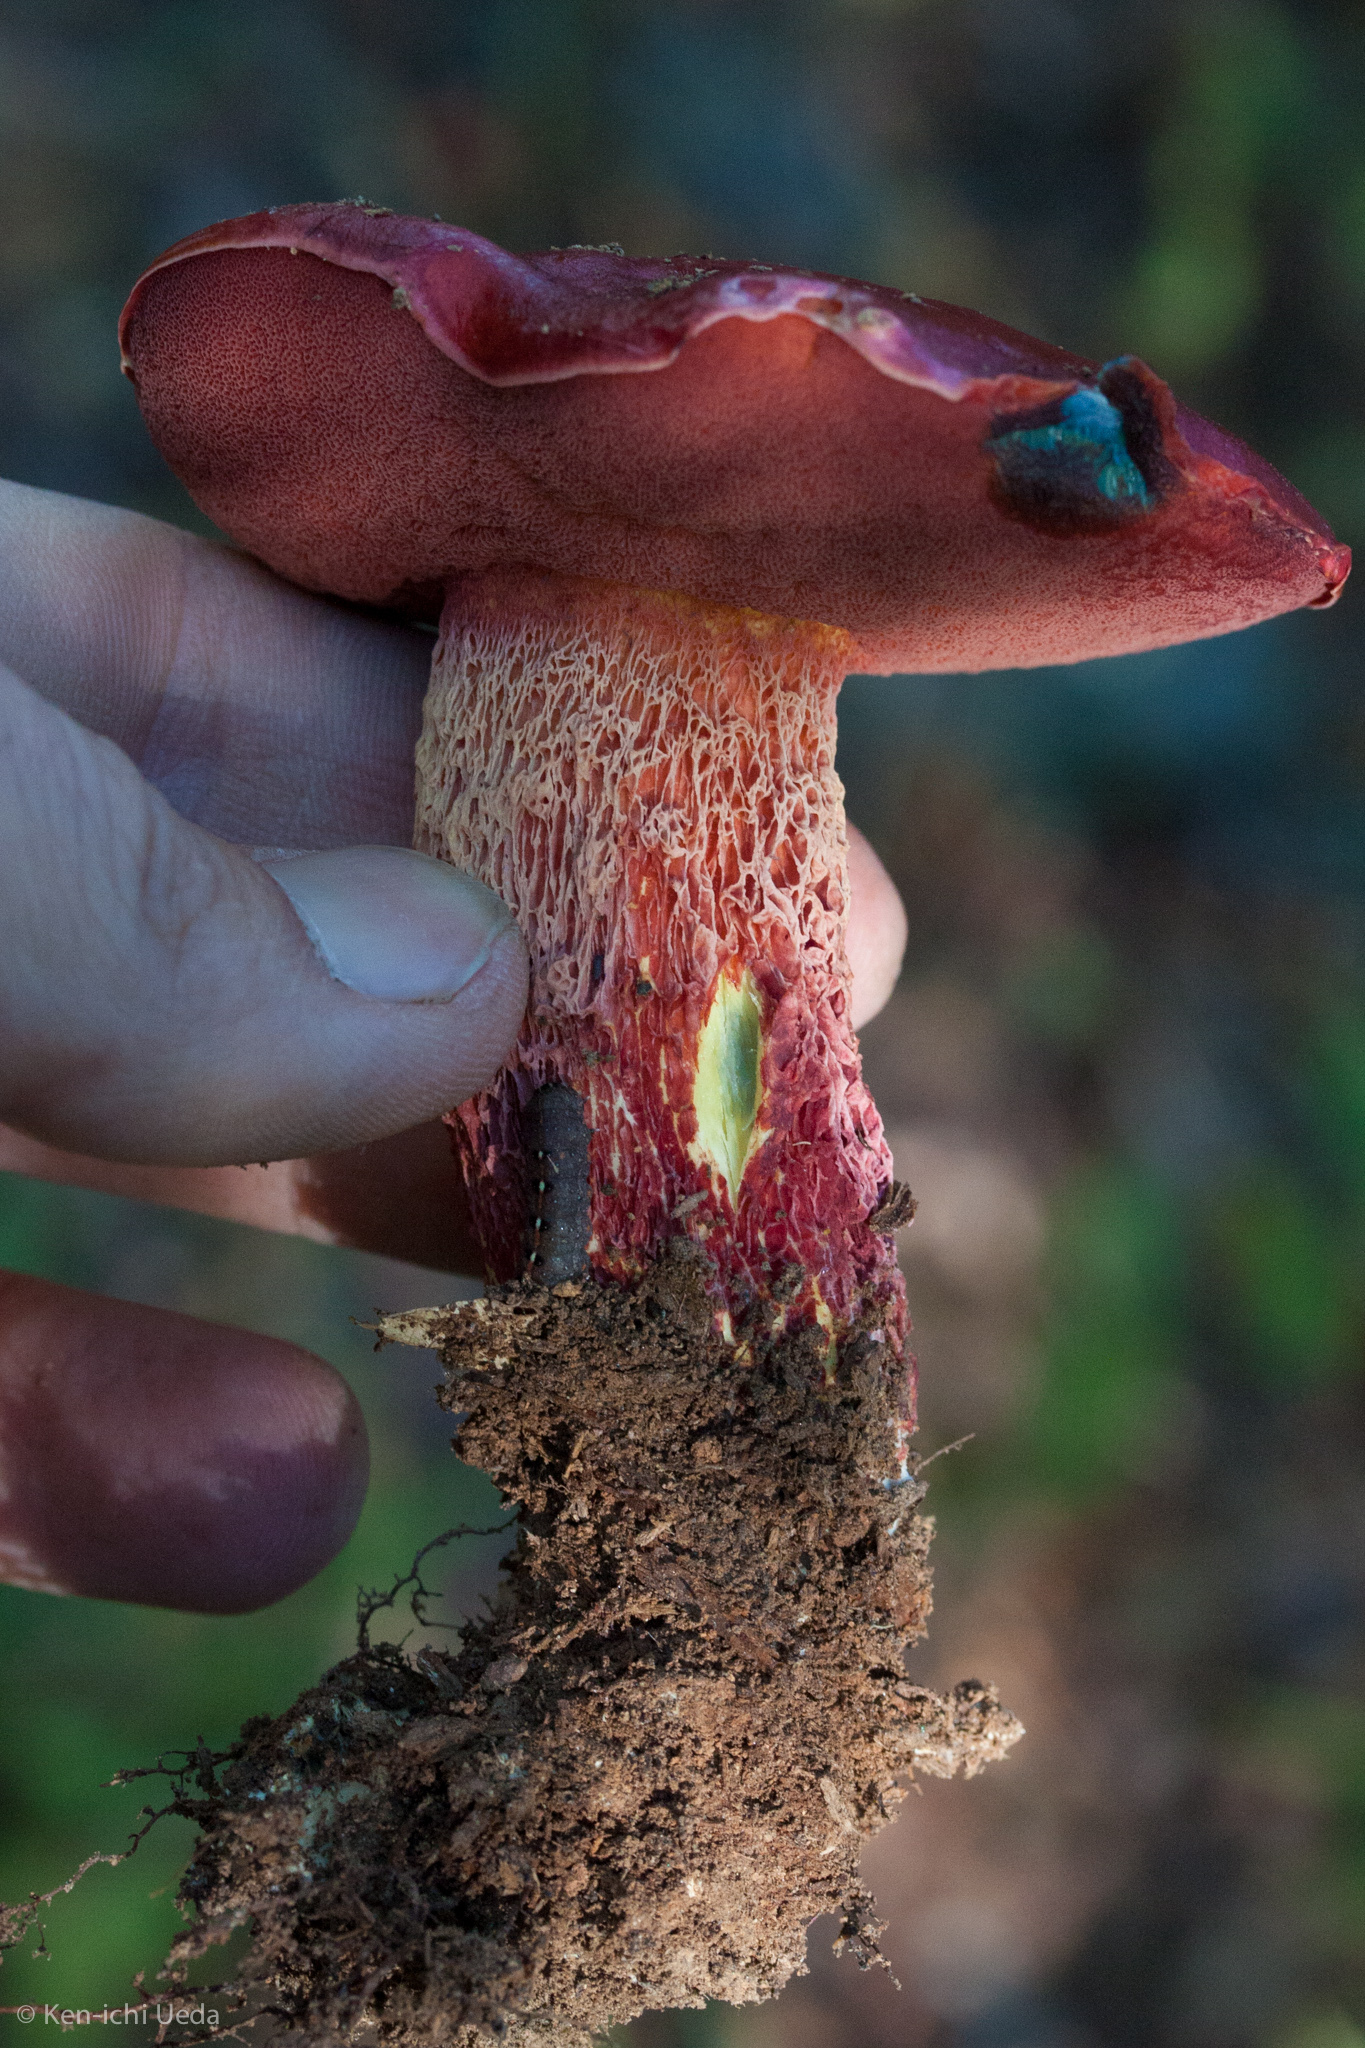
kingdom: Fungi
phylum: Basidiomycota
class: Agaricomycetes
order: Boletales
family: Boletaceae
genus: Butyriboletus
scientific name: Butyriboletus frostii
